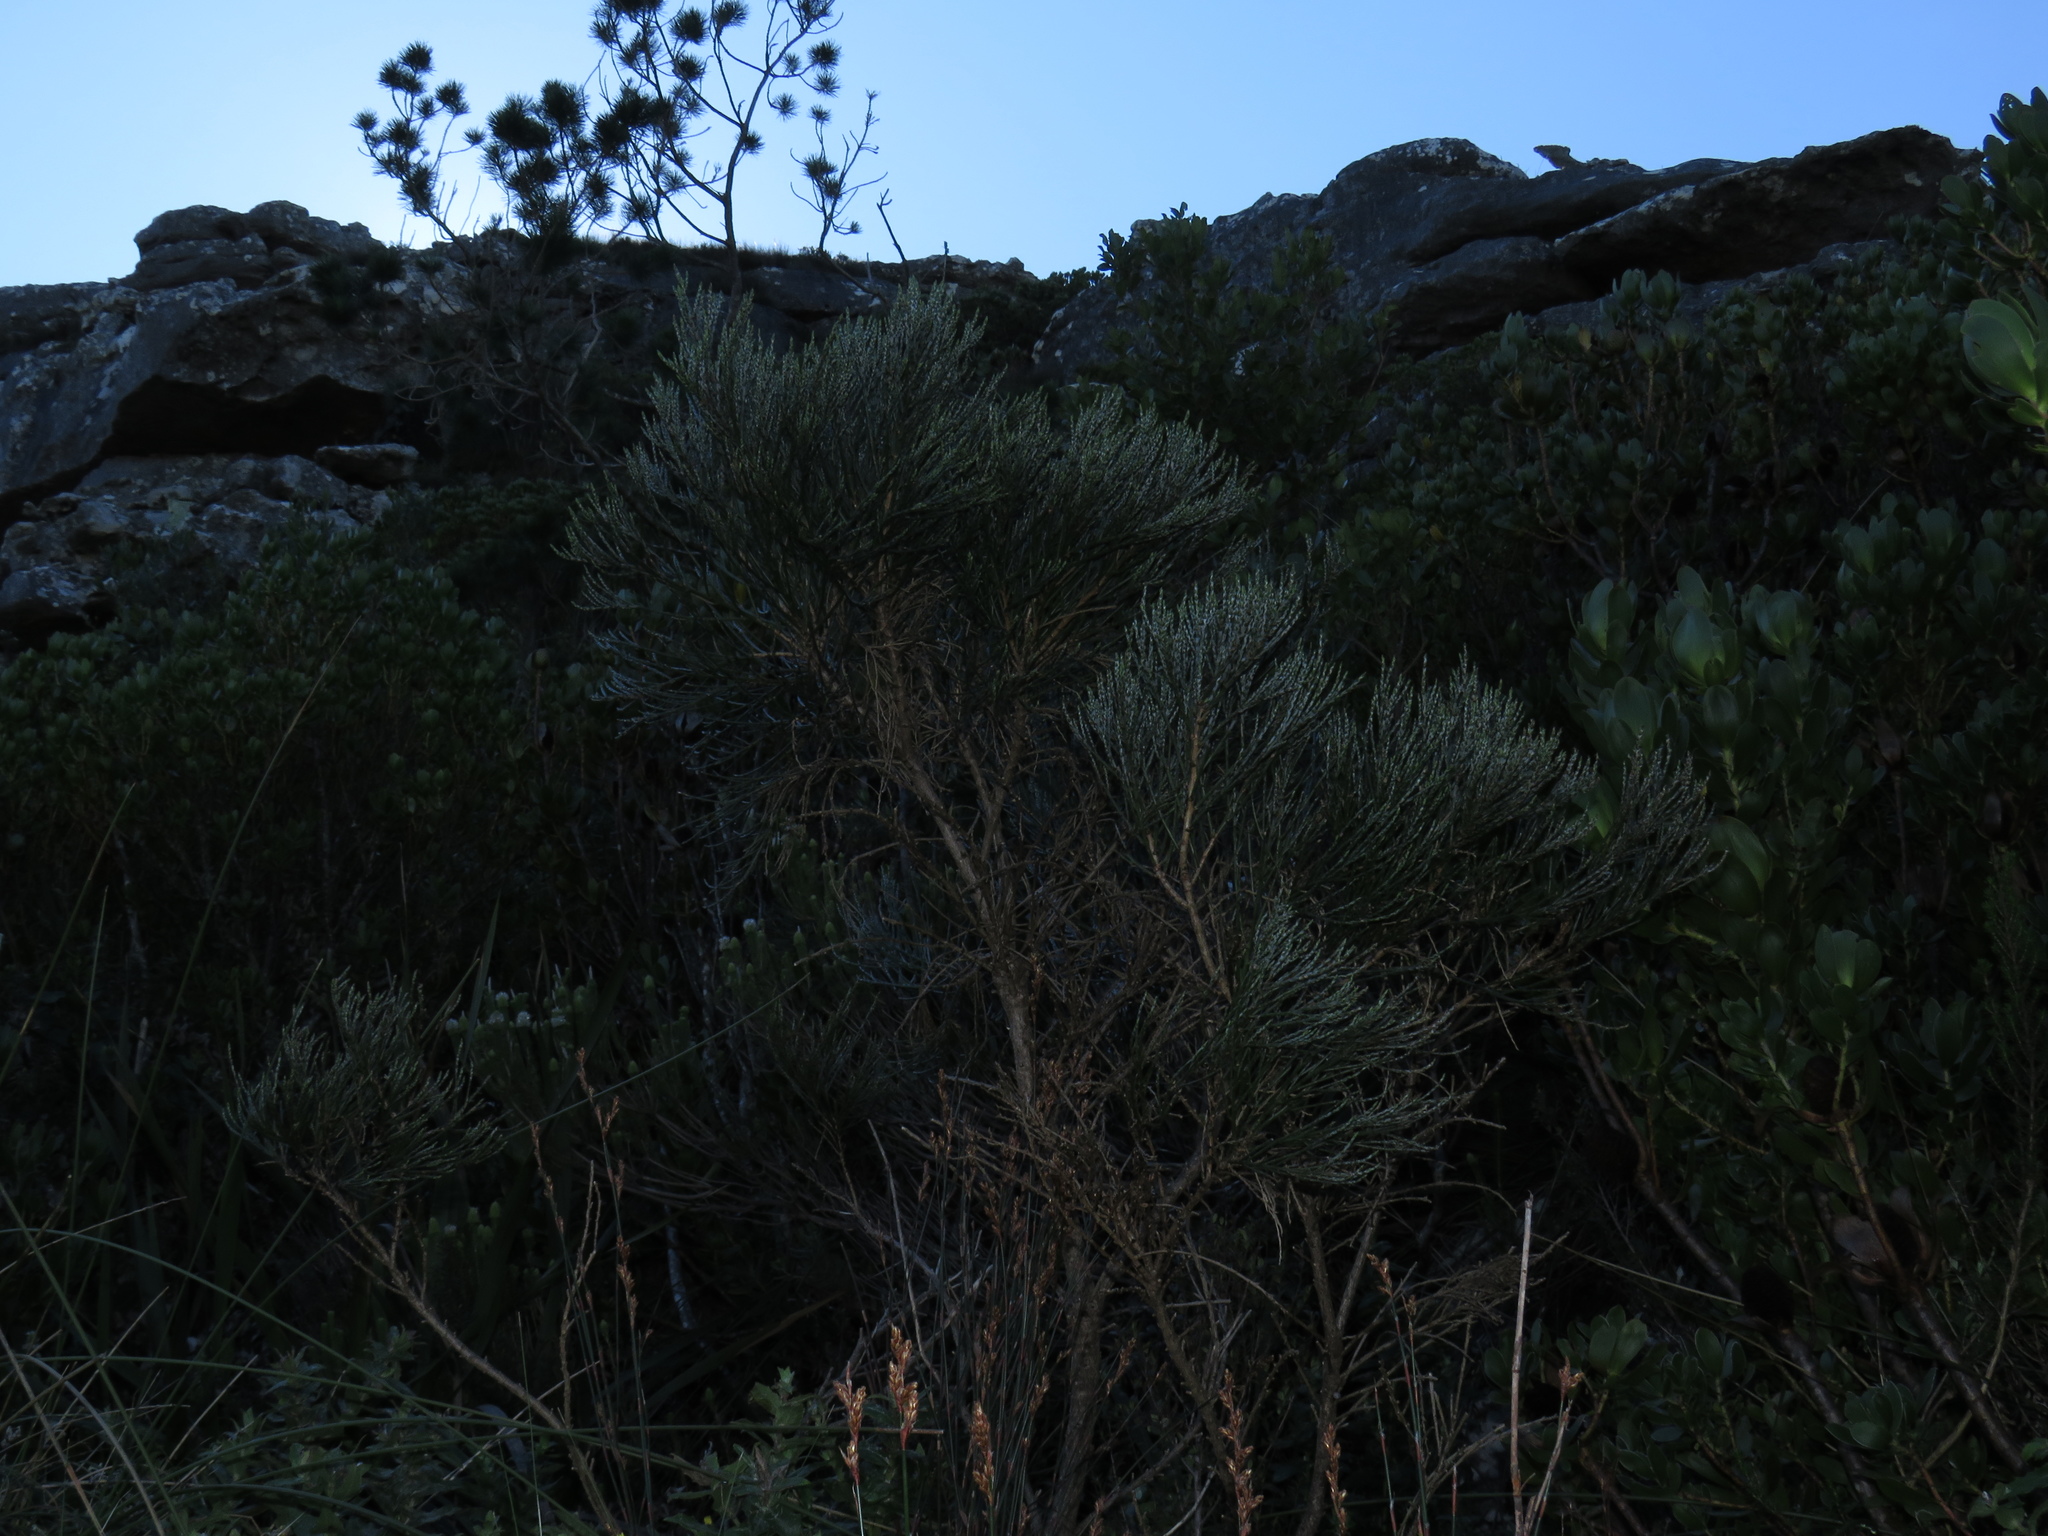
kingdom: Plantae
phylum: Tracheophyta
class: Magnoliopsida
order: Fabales
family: Fabaceae
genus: Psoralea
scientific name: Psoralea aphylla
